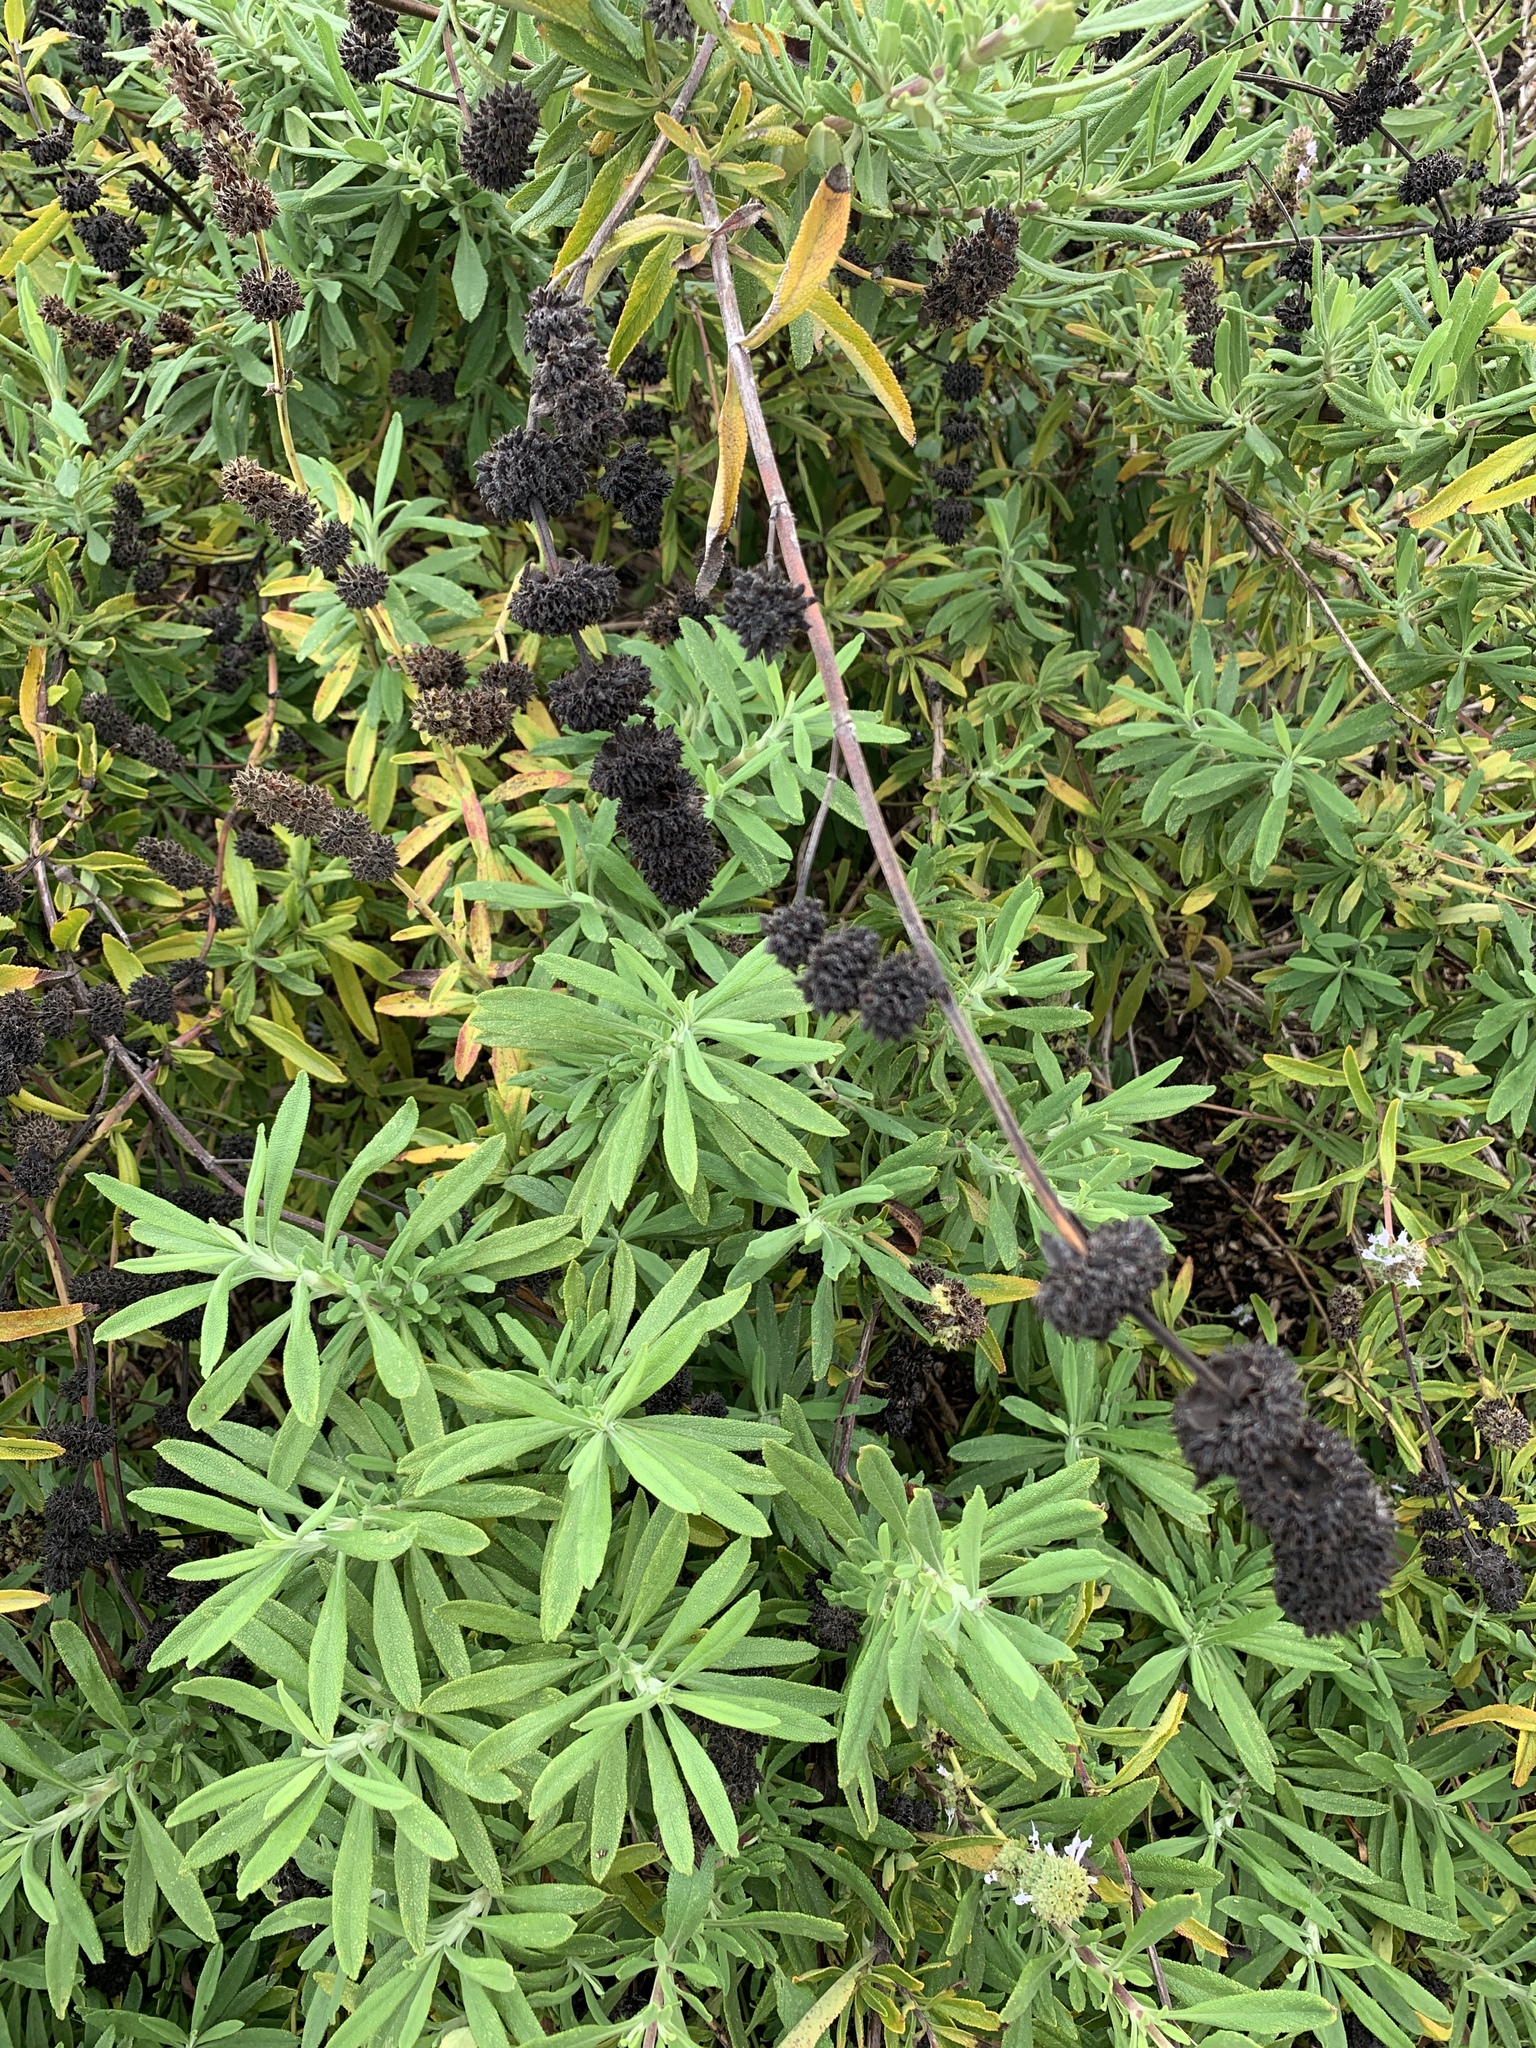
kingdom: Plantae
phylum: Tracheophyta
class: Magnoliopsida
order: Lamiales
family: Lamiaceae
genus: Salvia
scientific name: Salvia mellifera
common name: Black sage
